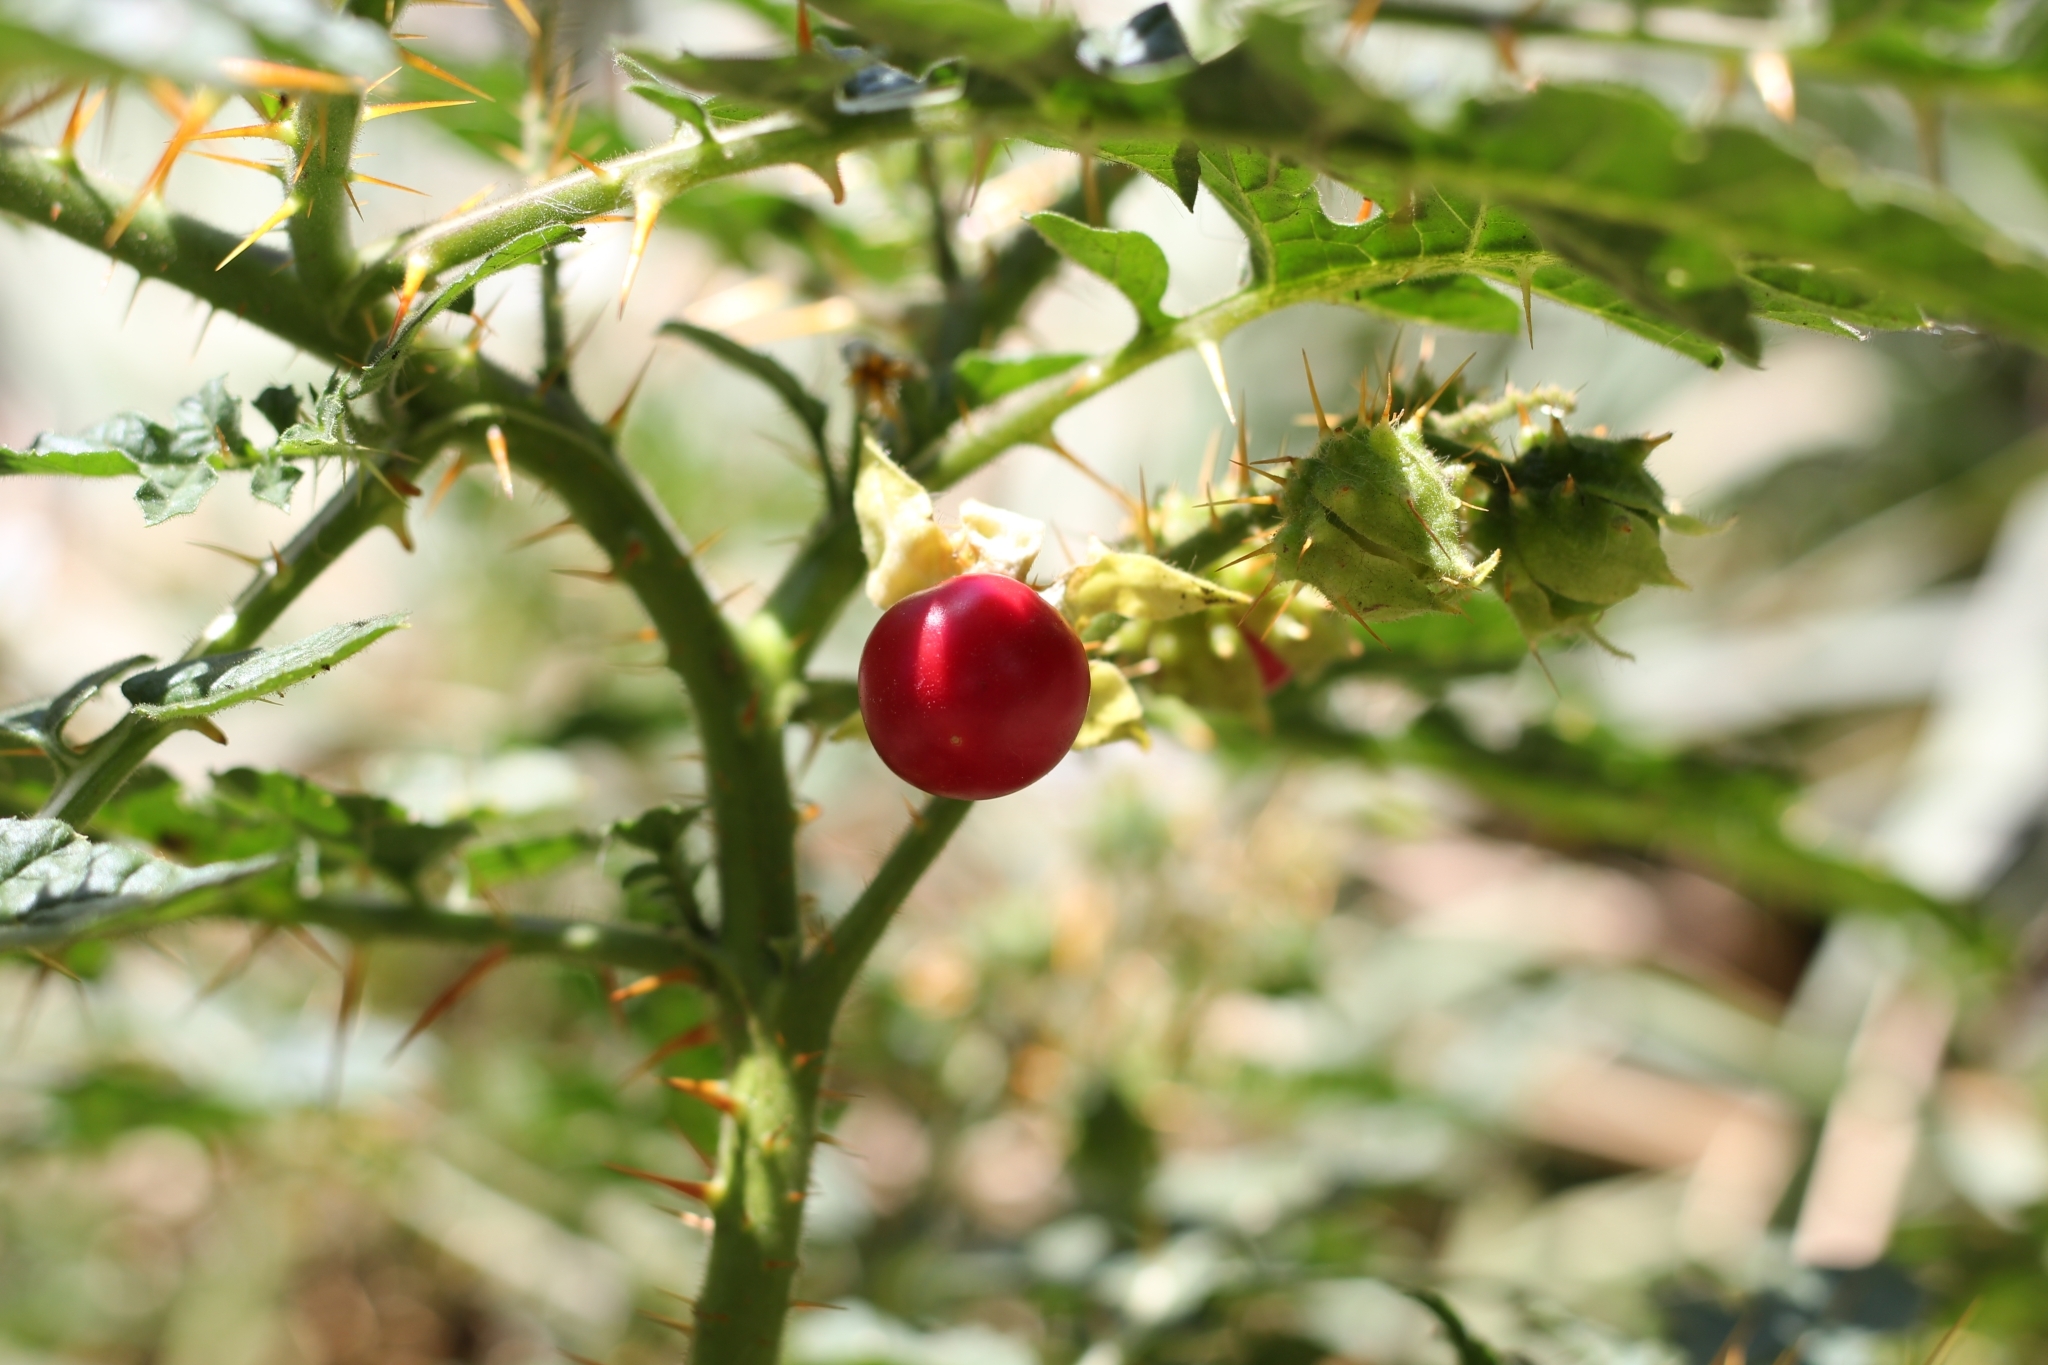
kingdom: Plantae
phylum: Tracheophyta
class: Magnoliopsida
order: Solanales
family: Solanaceae
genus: Solanum
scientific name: Solanum sisymbriifolium
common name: Red buffalo-bur
